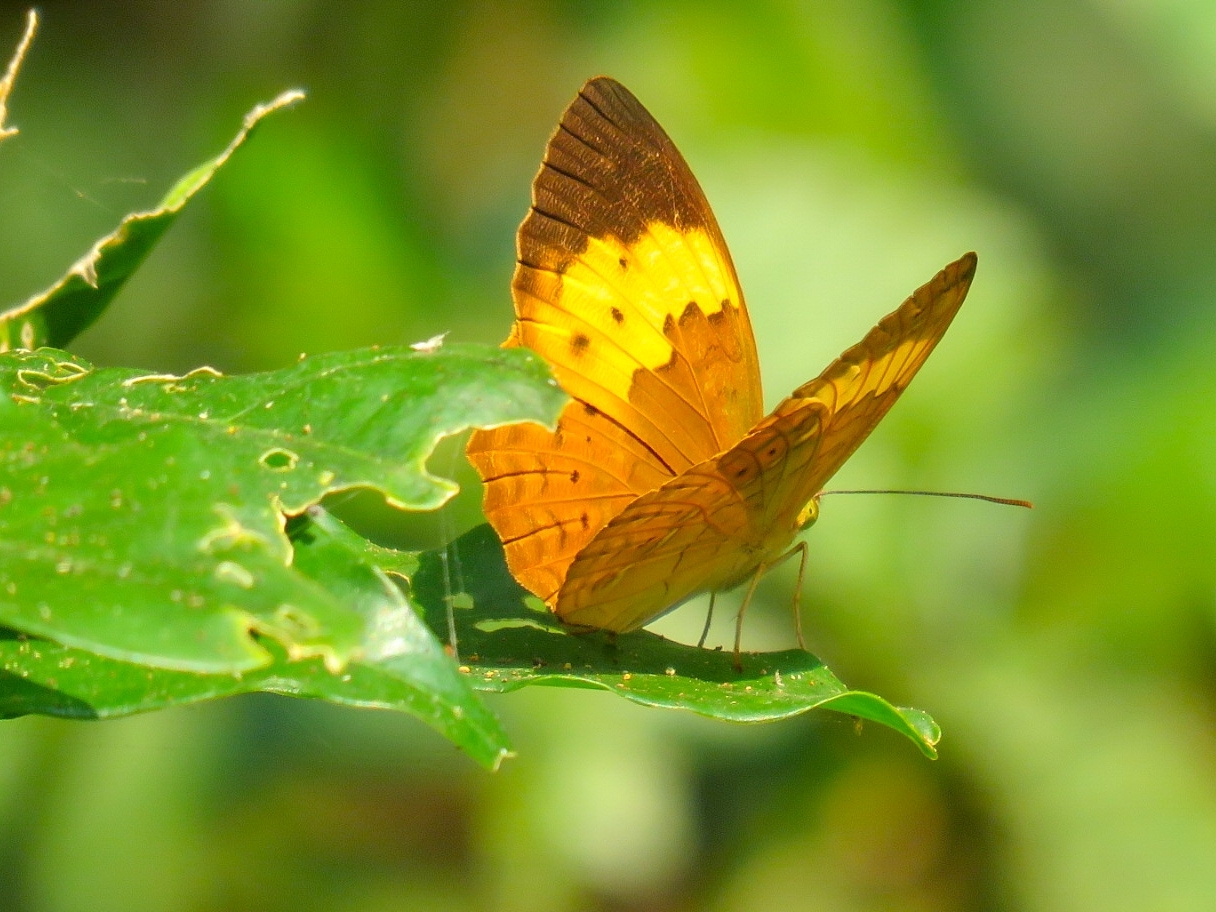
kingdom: Animalia
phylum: Arthropoda
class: Insecta
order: Lepidoptera
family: Nymphalidae
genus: Cupha
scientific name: Cupha erymanthis
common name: Rustic
